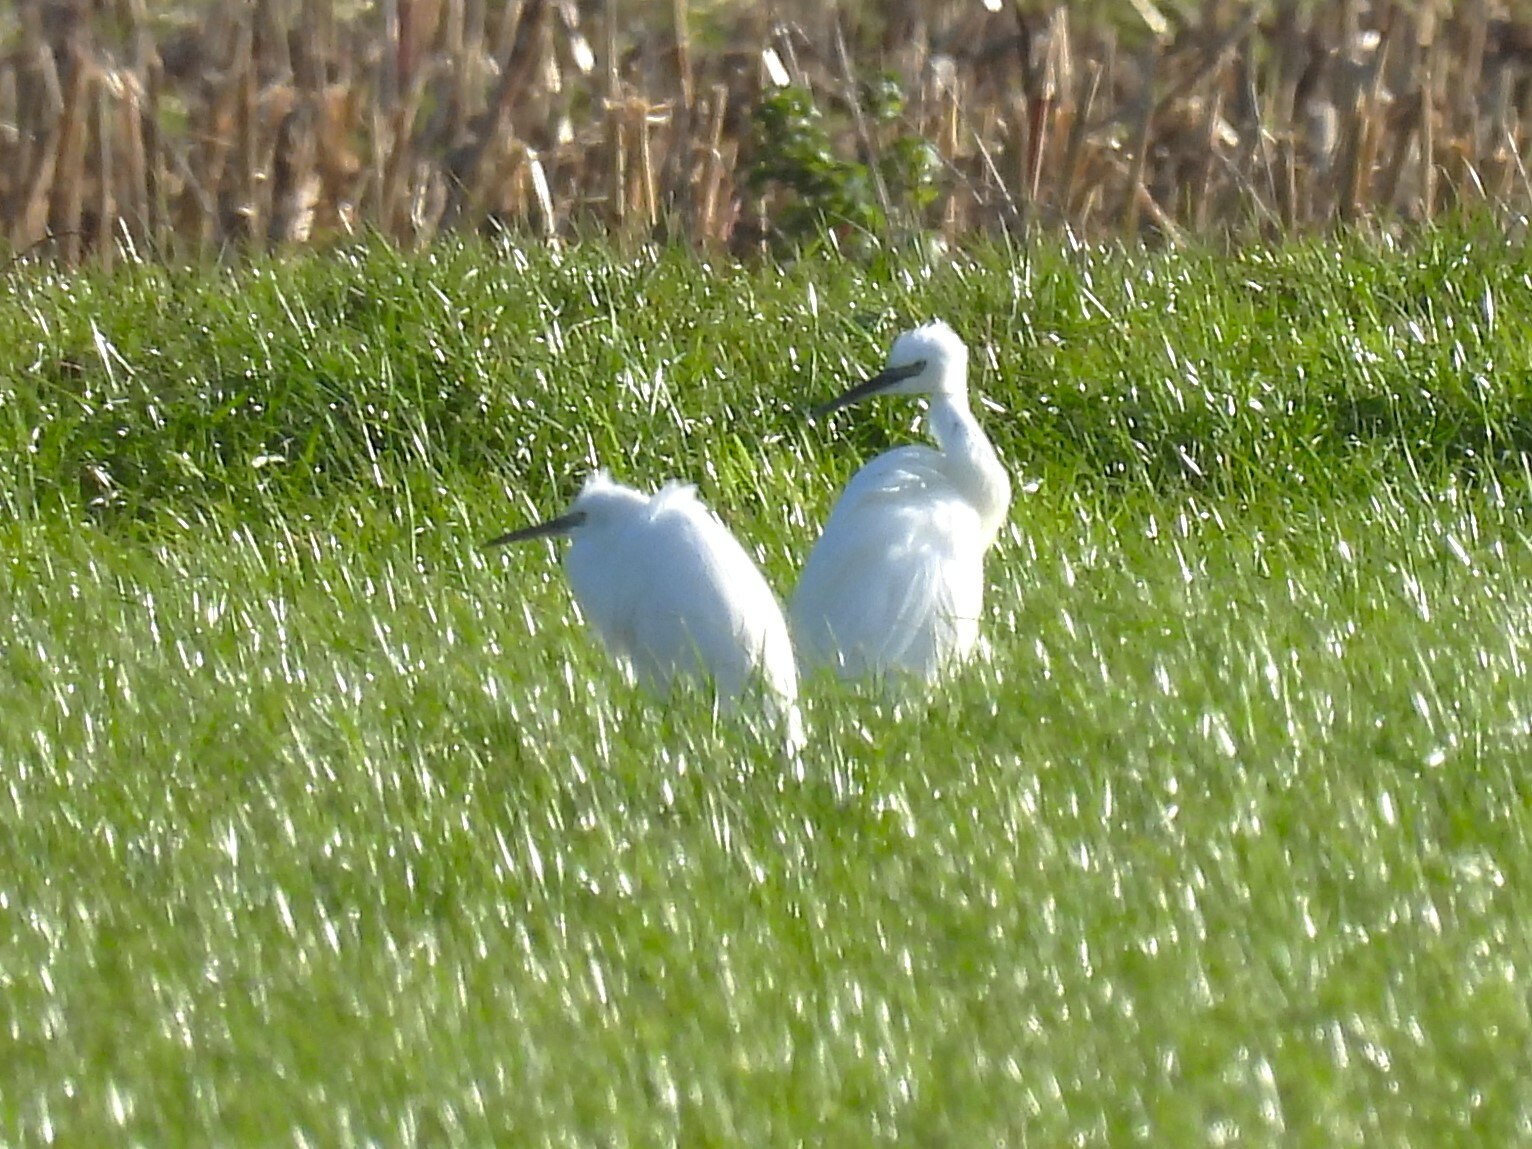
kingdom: Animalia
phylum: Chordata
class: Aves
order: Pelecaniformes
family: Ardeidae
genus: Egretta
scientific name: Egretta garzetta
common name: Little egret
